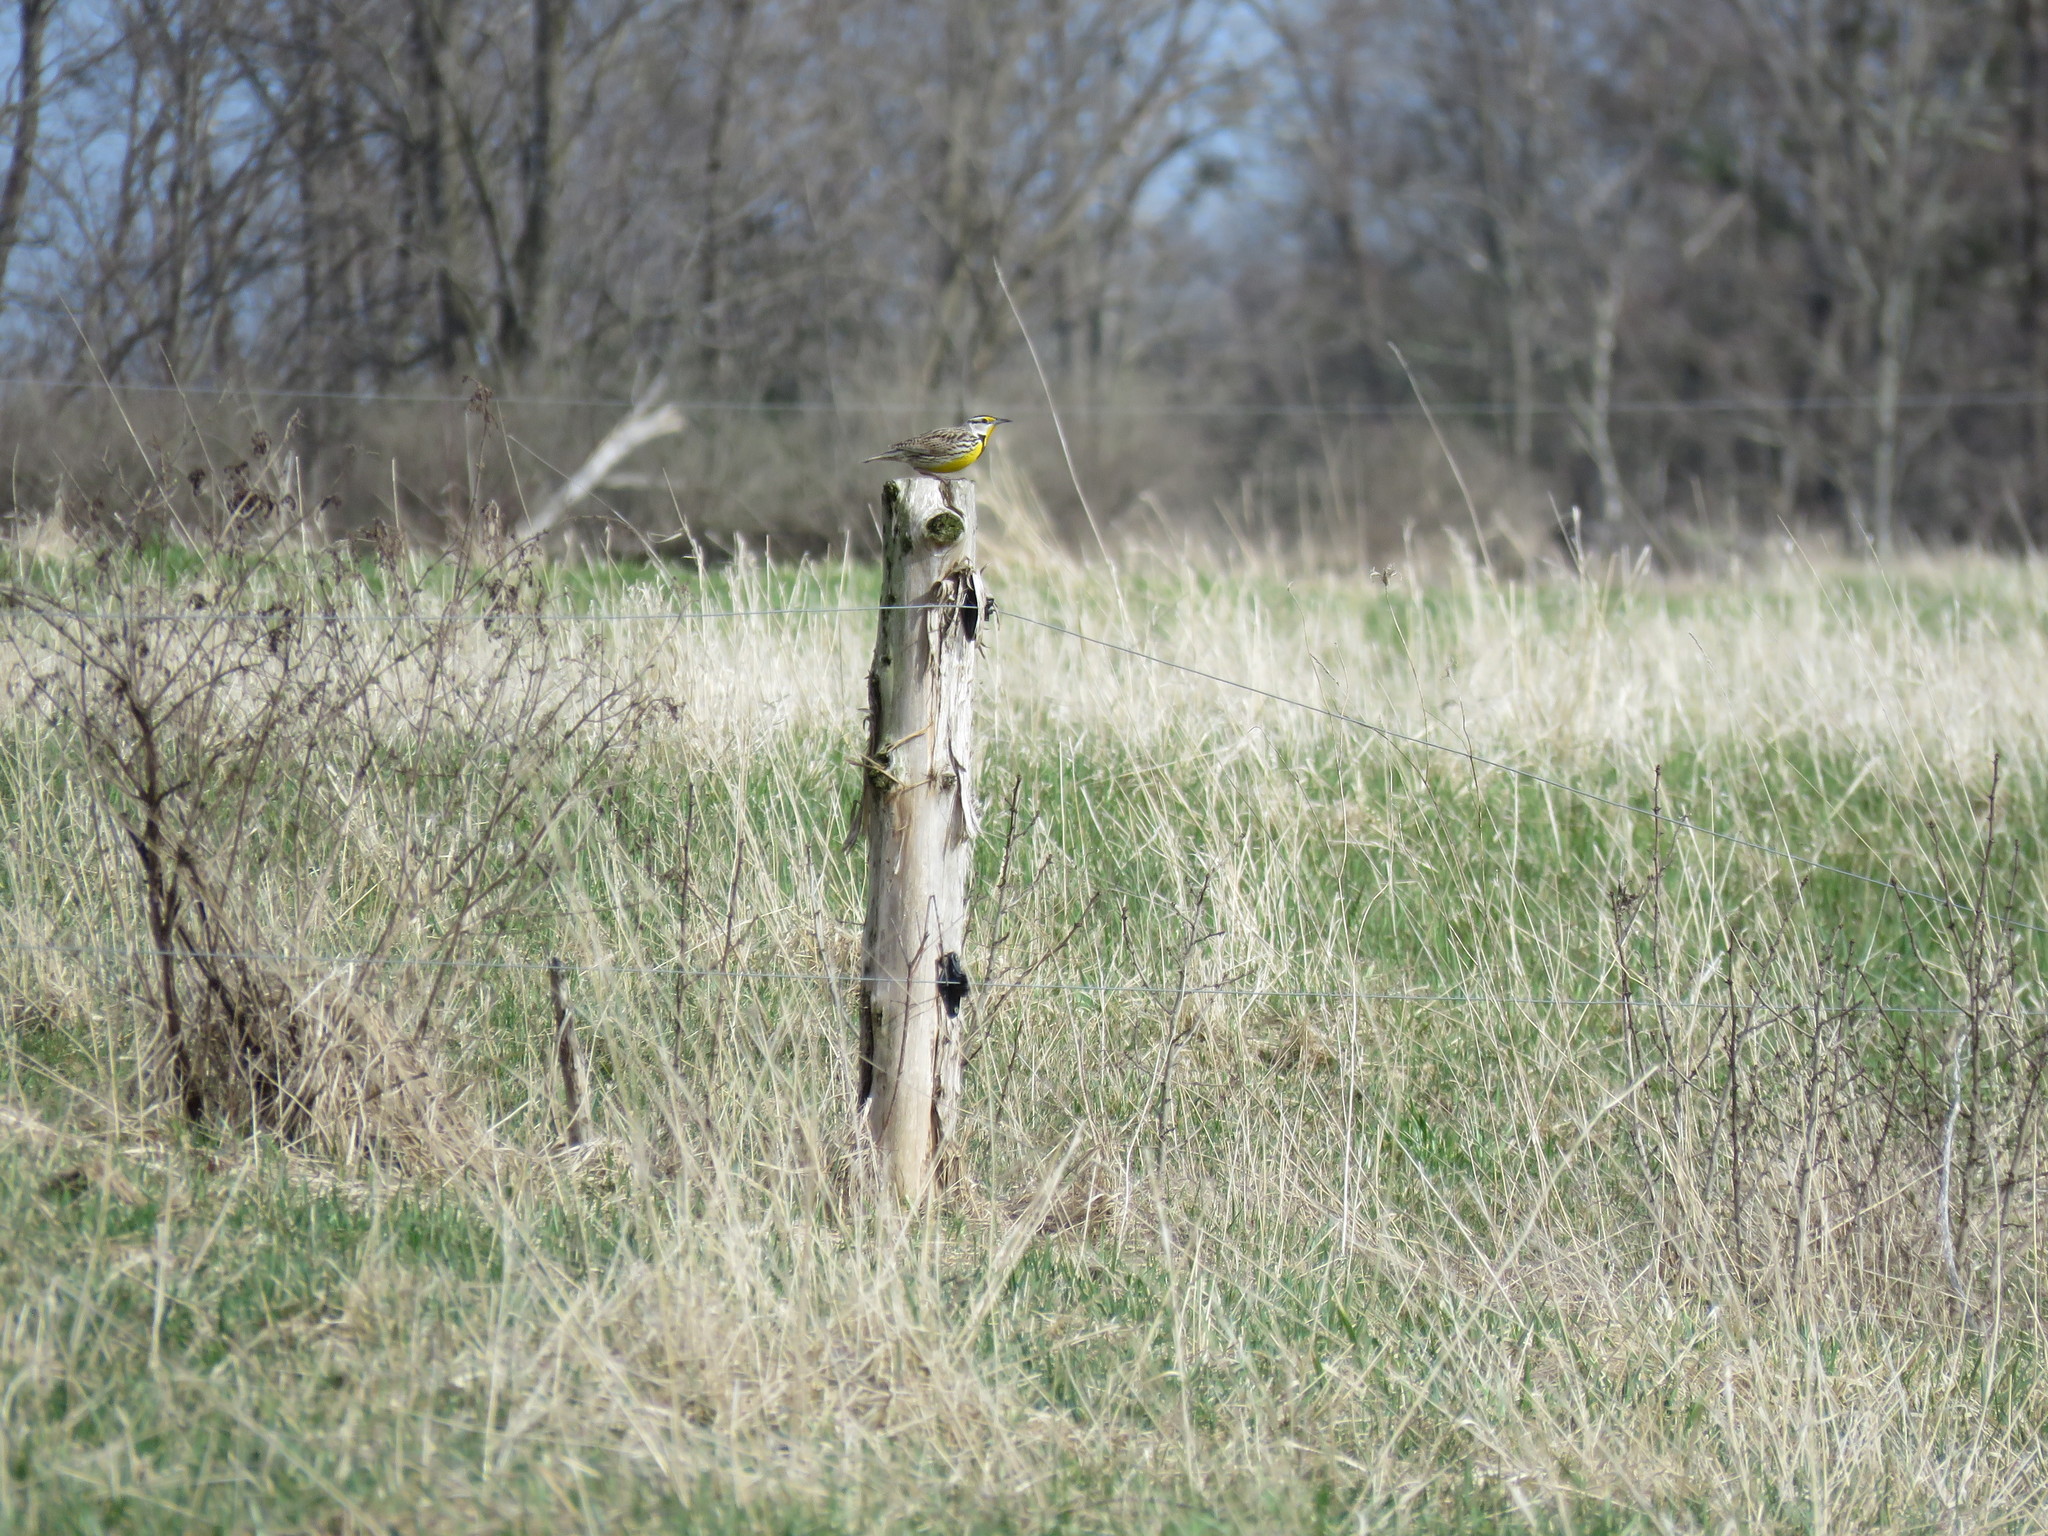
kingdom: Animalia
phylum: Chordata
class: Aves
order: Passeriformes
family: Icteridae
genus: Sturnella
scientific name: Sturnella magna
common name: Eastern meadowlark
